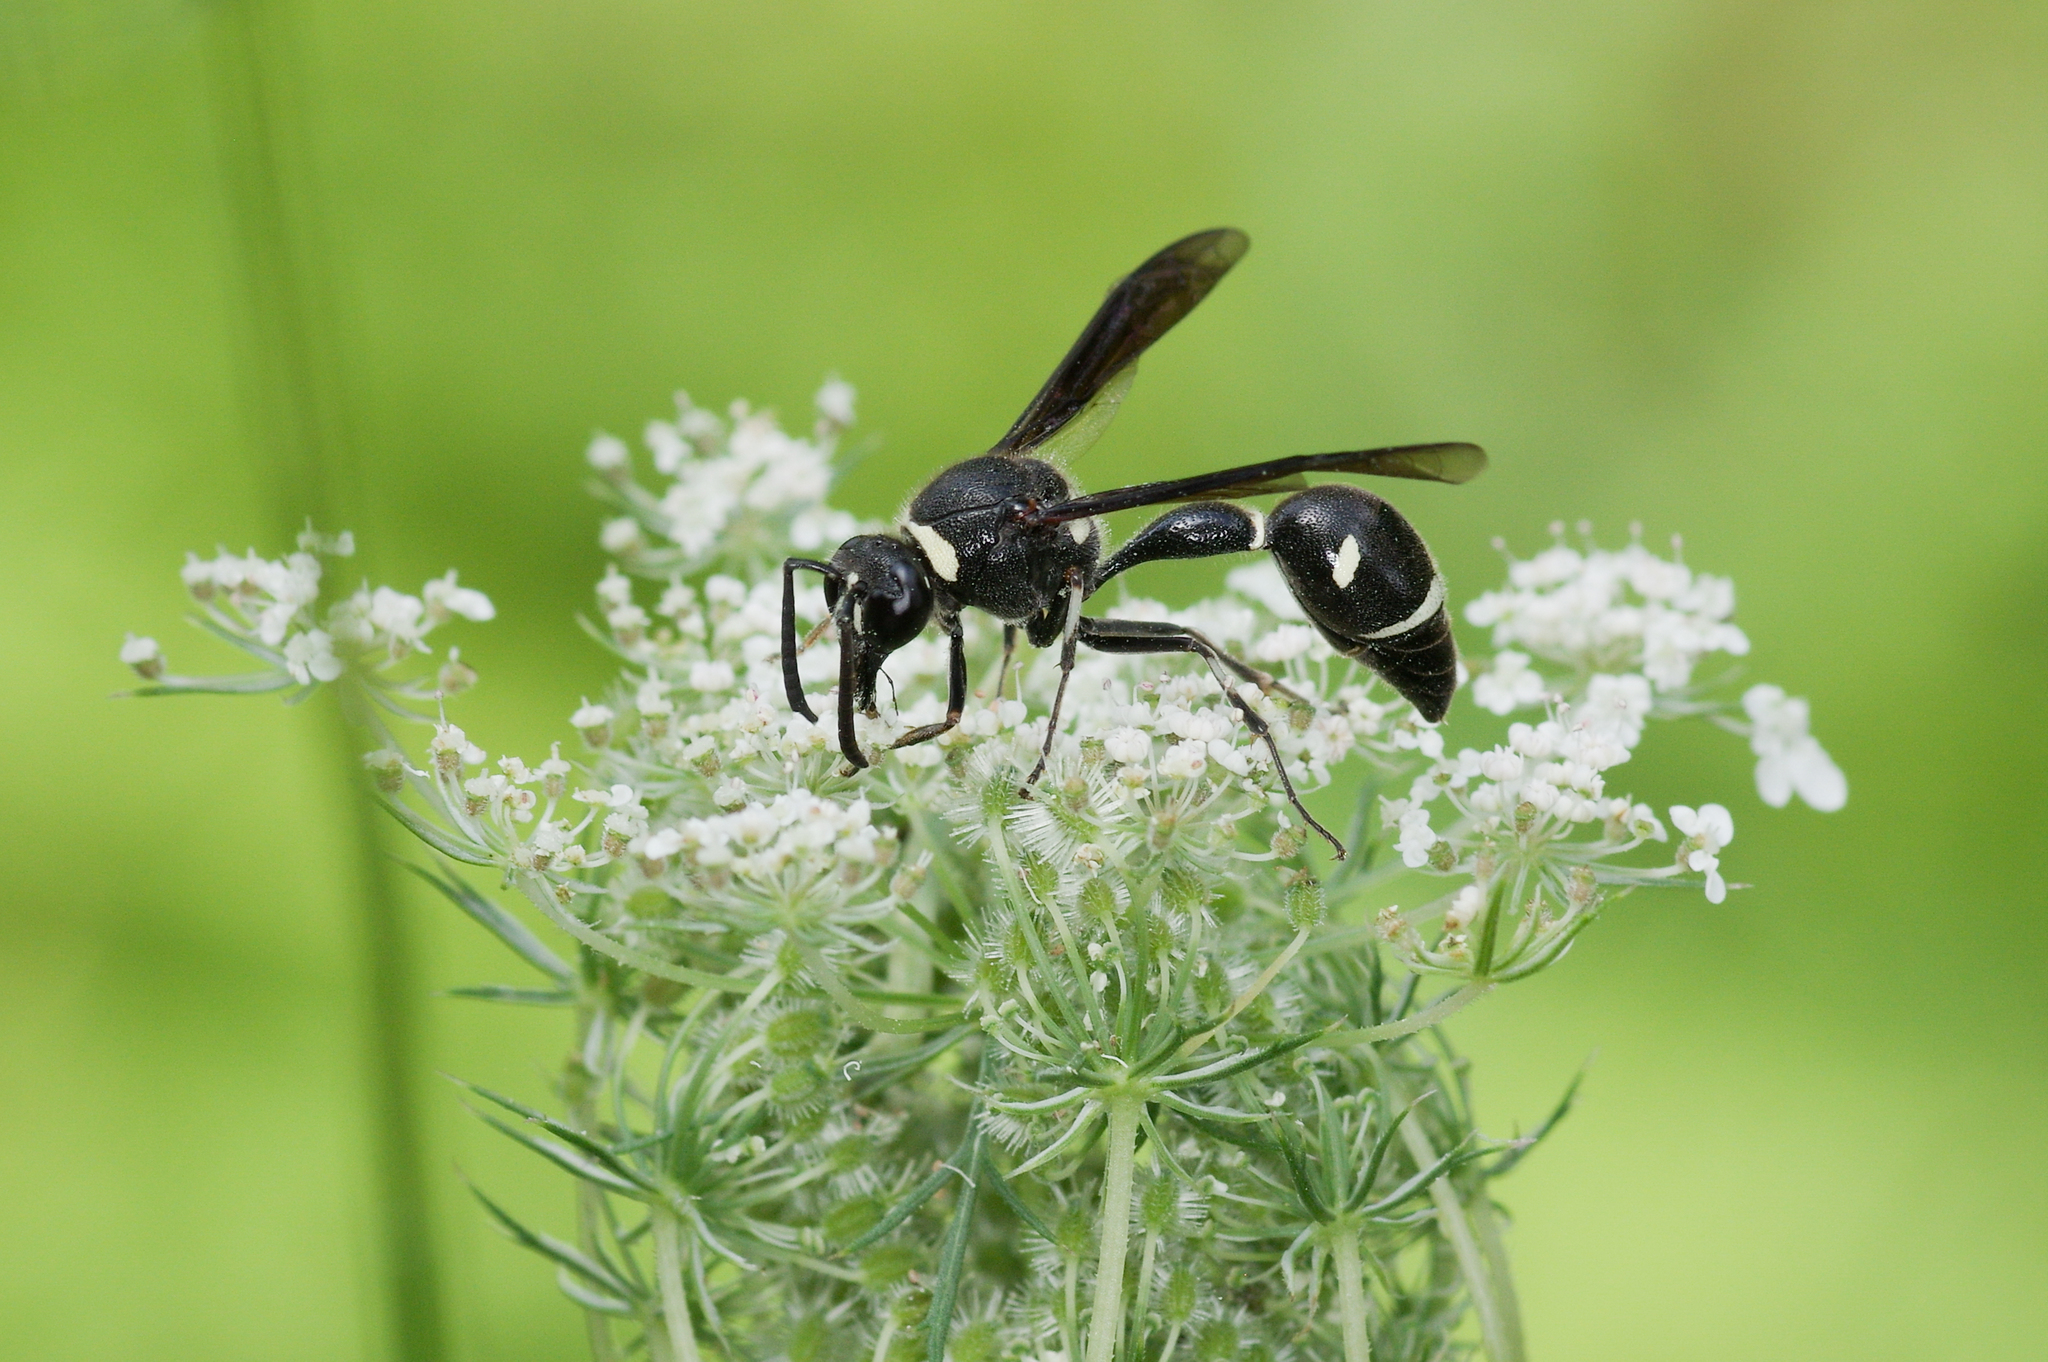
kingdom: Animalia
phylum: Arthropoda
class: Insecta
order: Hymenoptera
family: Vespidae
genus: Eumenes
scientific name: Eumenes fraternus
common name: Fraternal potter wasp
